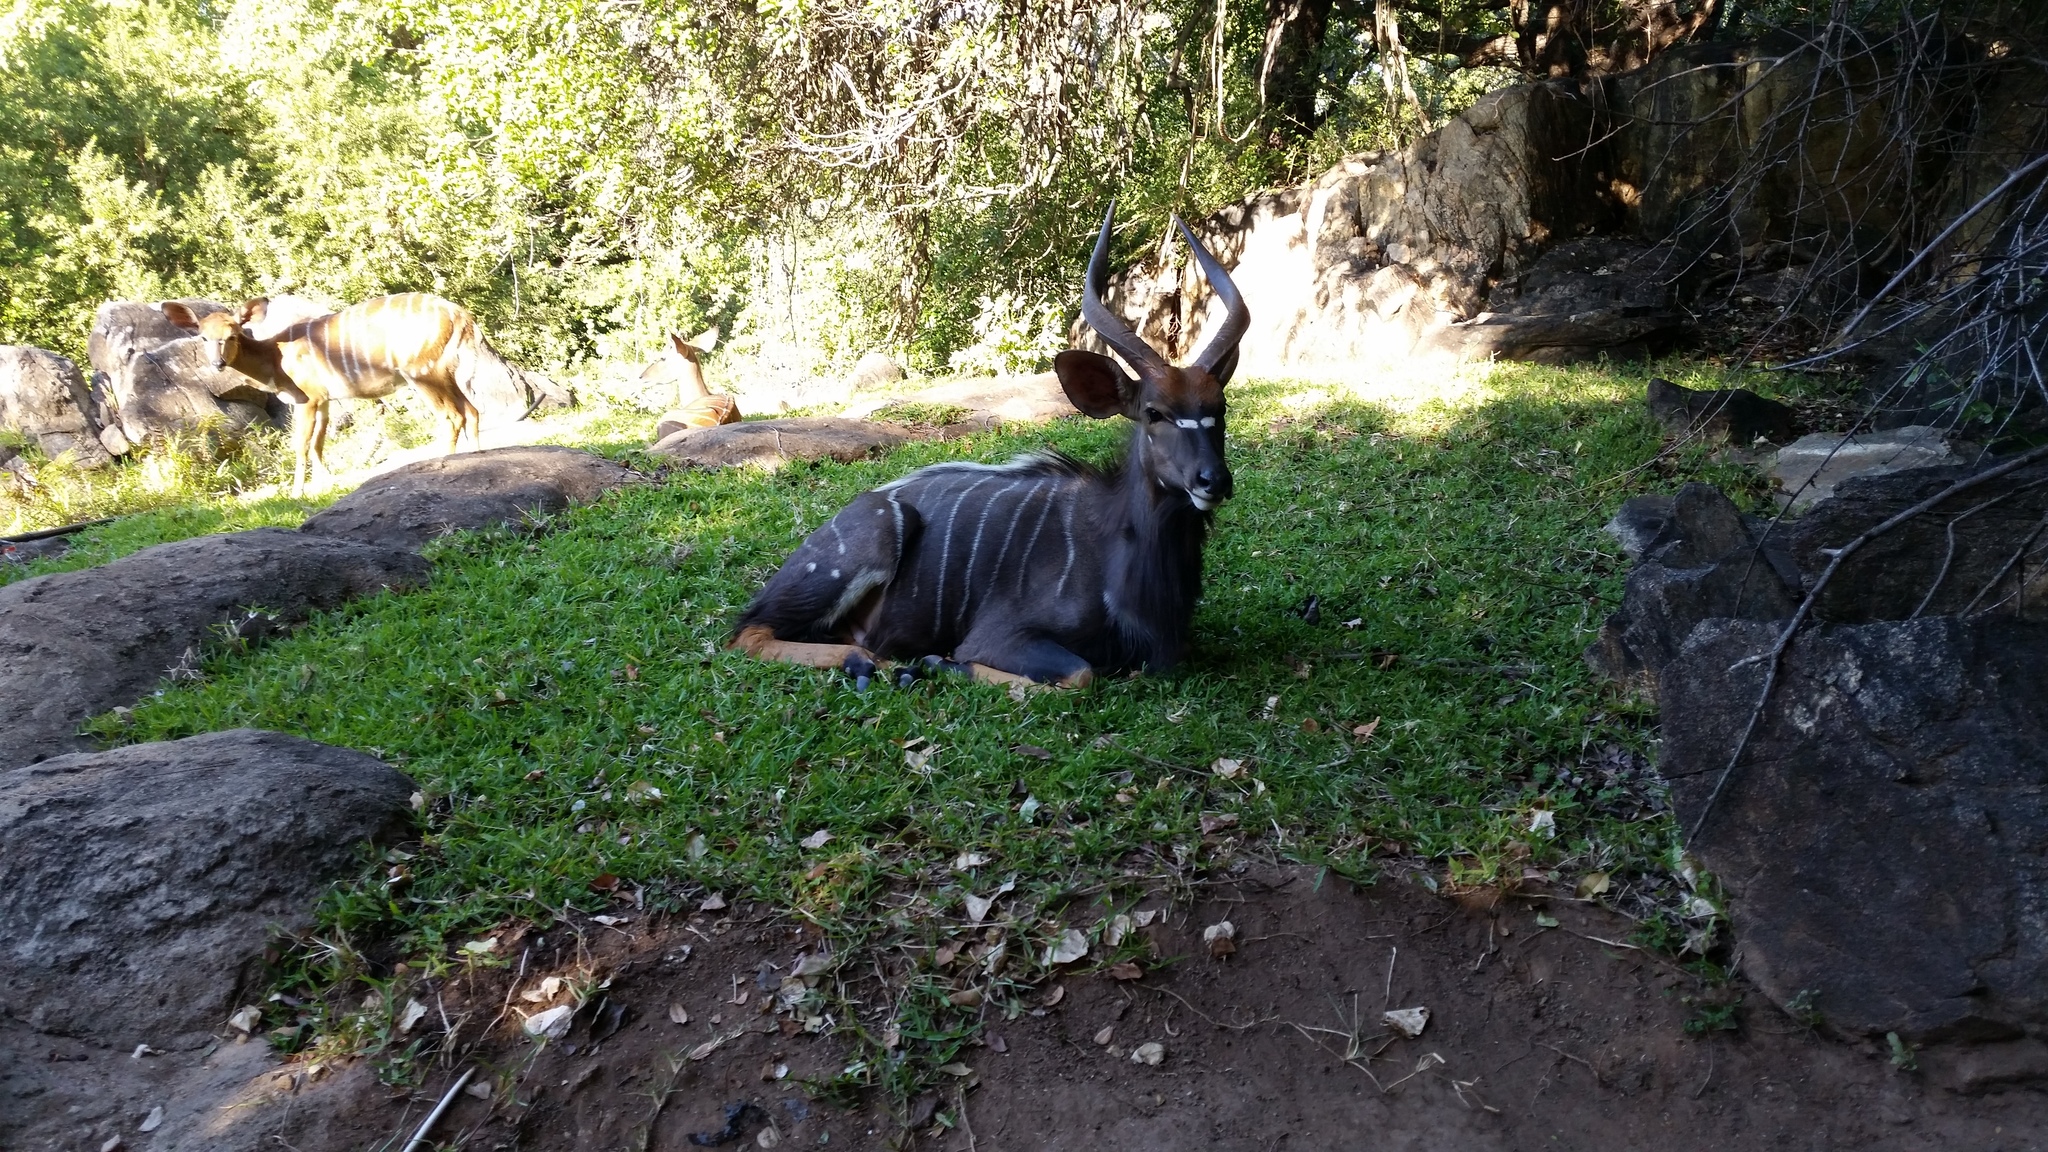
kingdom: Animalia
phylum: Chordata
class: Mammalia
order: Artiodactyla
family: Bovidae
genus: Tragelaphus
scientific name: Tragelaphus angasii
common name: Nyala
